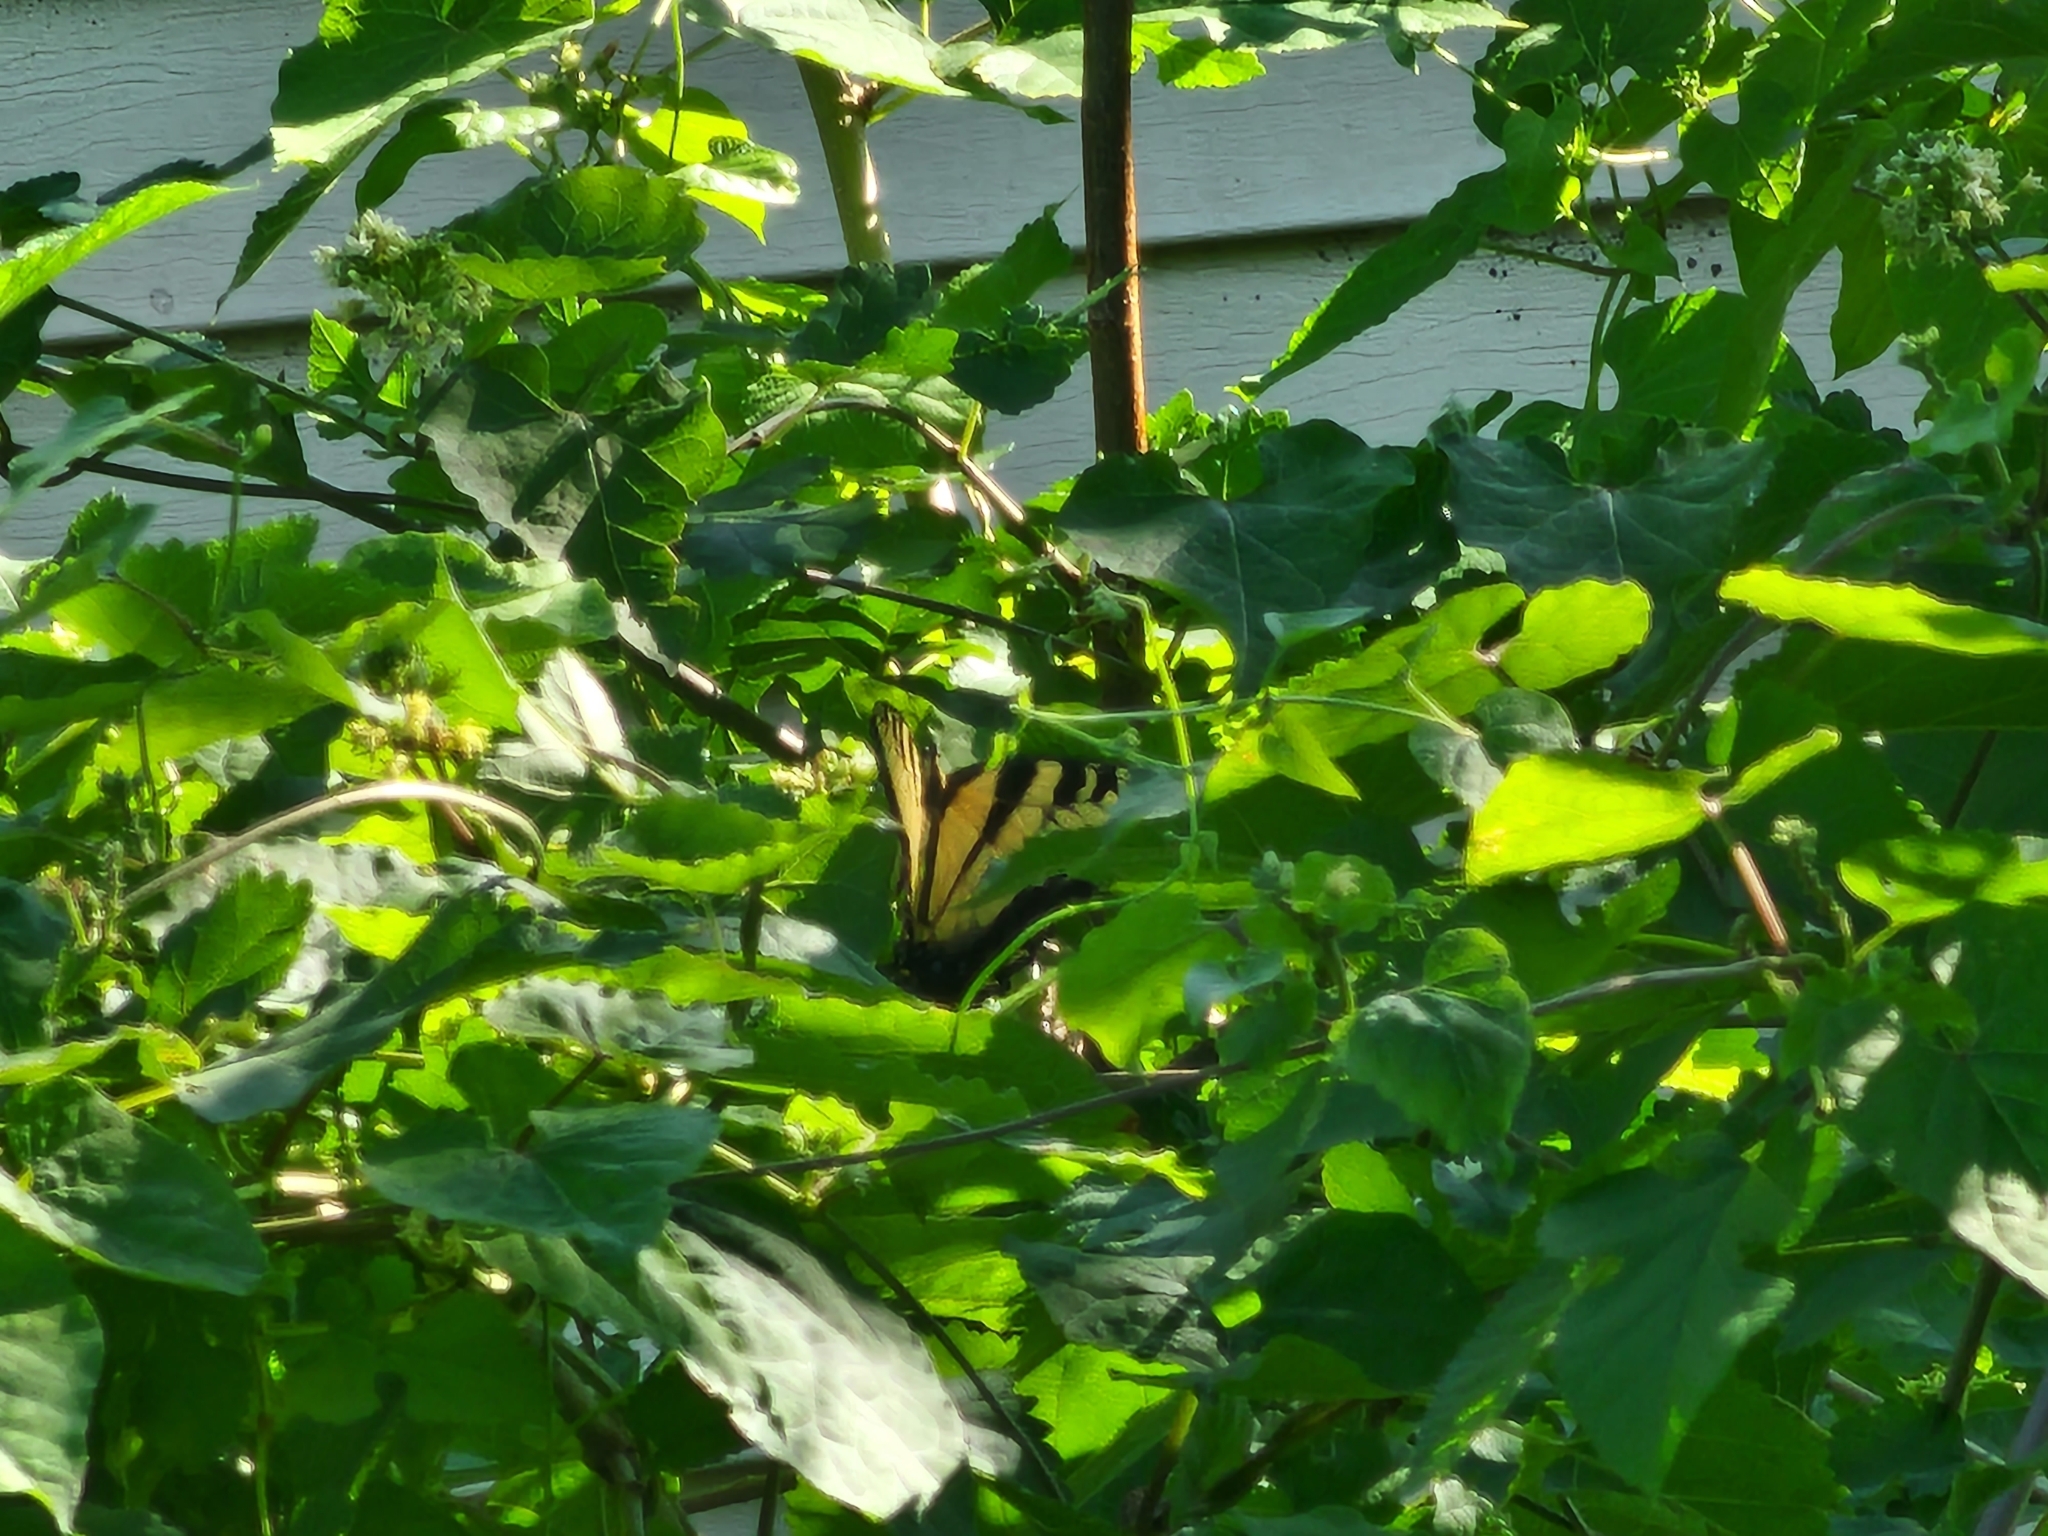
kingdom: Animalia
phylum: Arthropoda
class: Insecta
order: Lepidoptera
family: Papilionidae
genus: Papilio
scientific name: Papilio glaucus
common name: Tiger swallowtail
